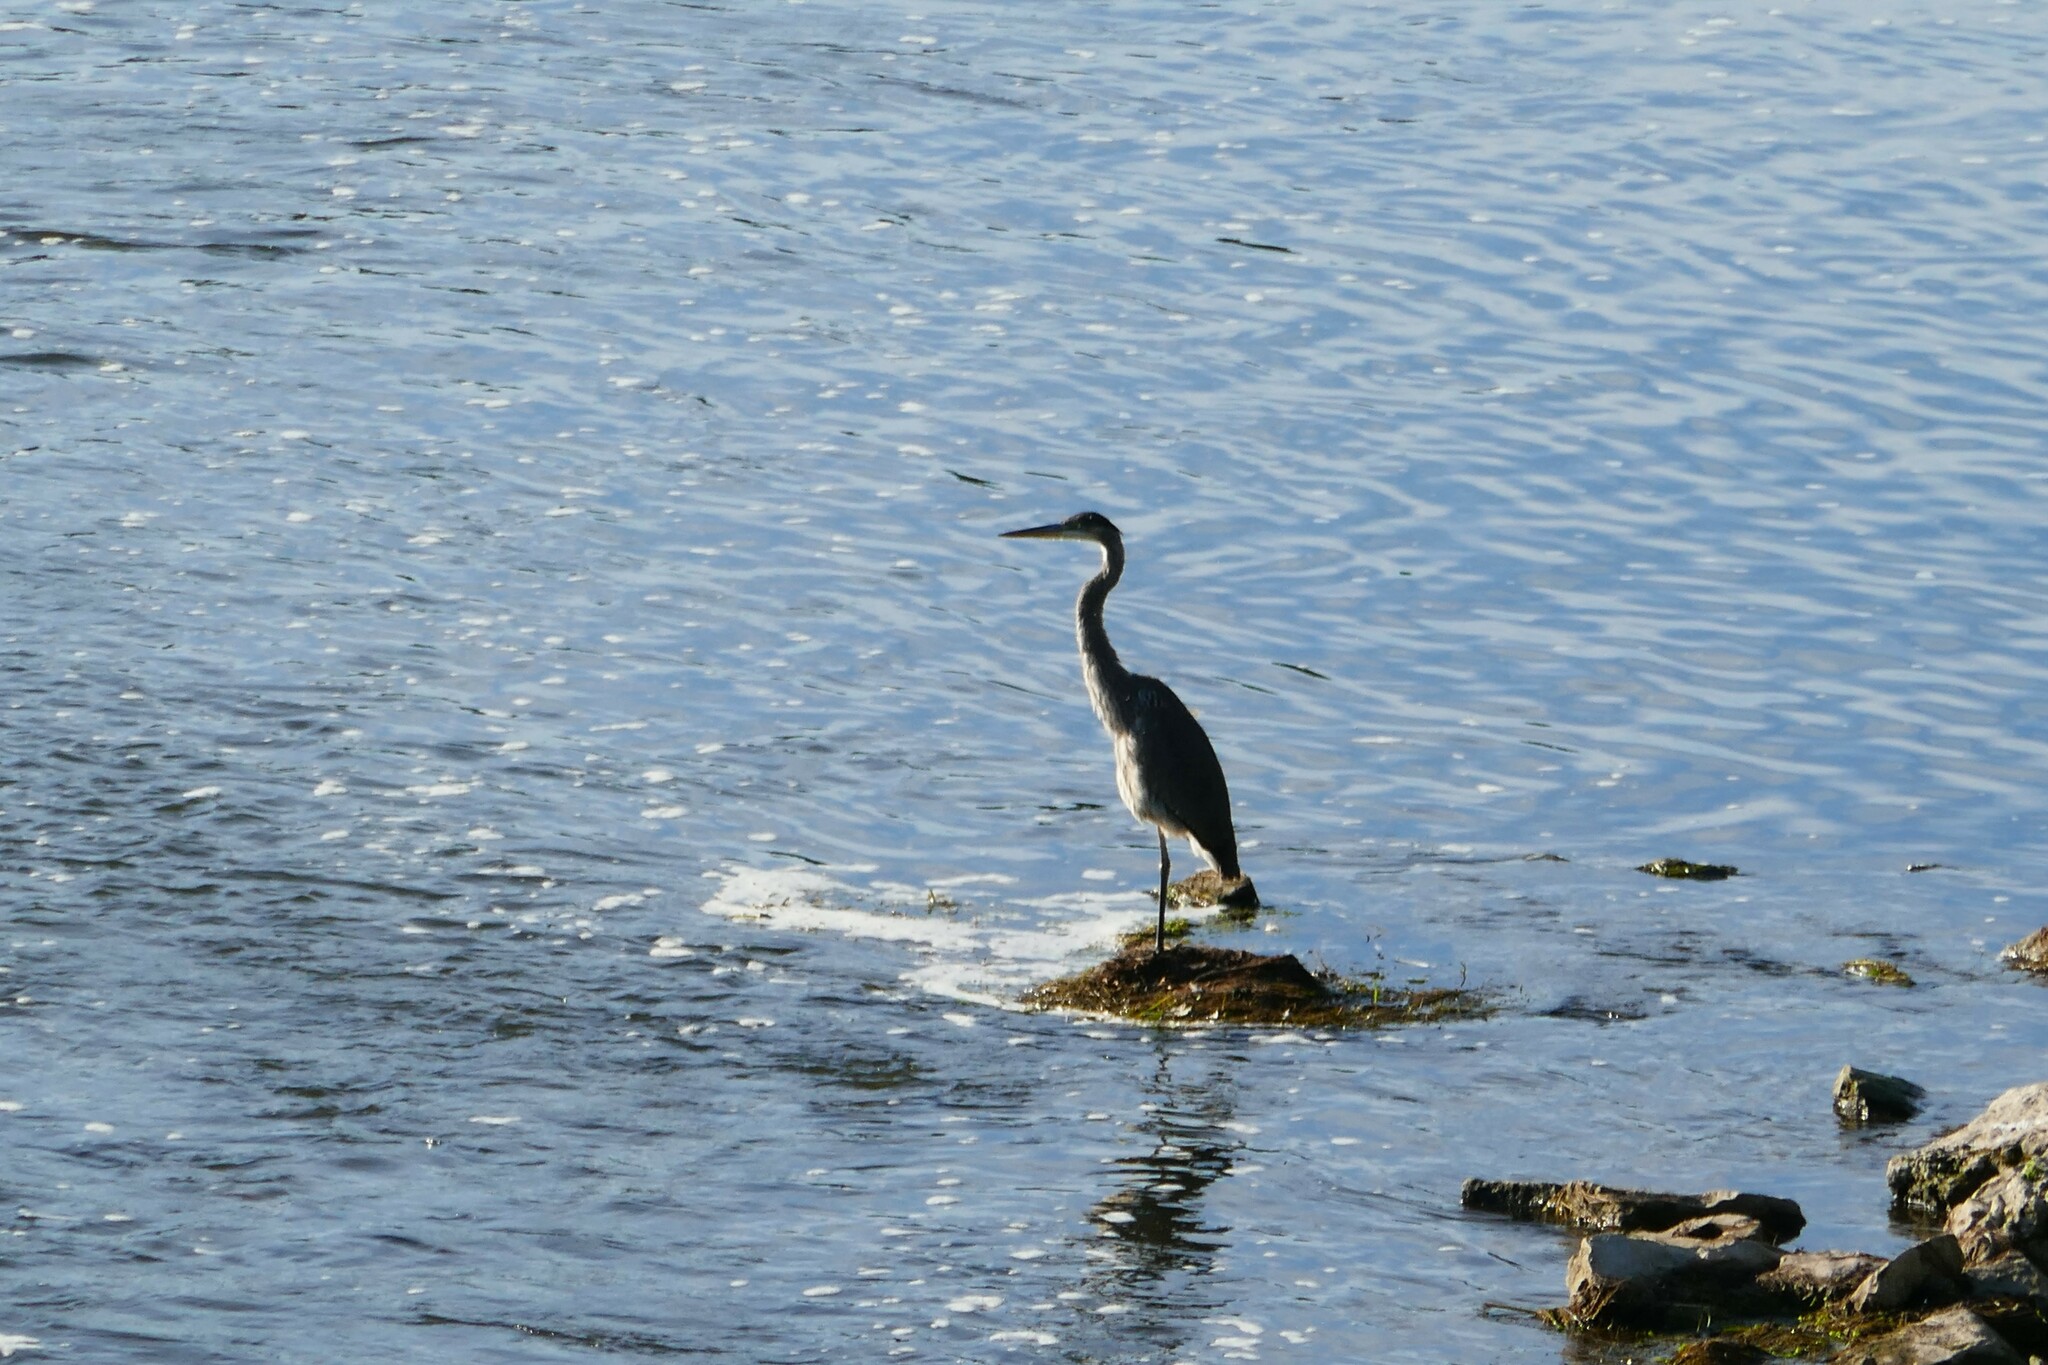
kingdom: Animalia
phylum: Chordata
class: Aves
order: Pelecaniformes
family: Ardeidae
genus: Ardea
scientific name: Ardea herodias
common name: Great blue heron
